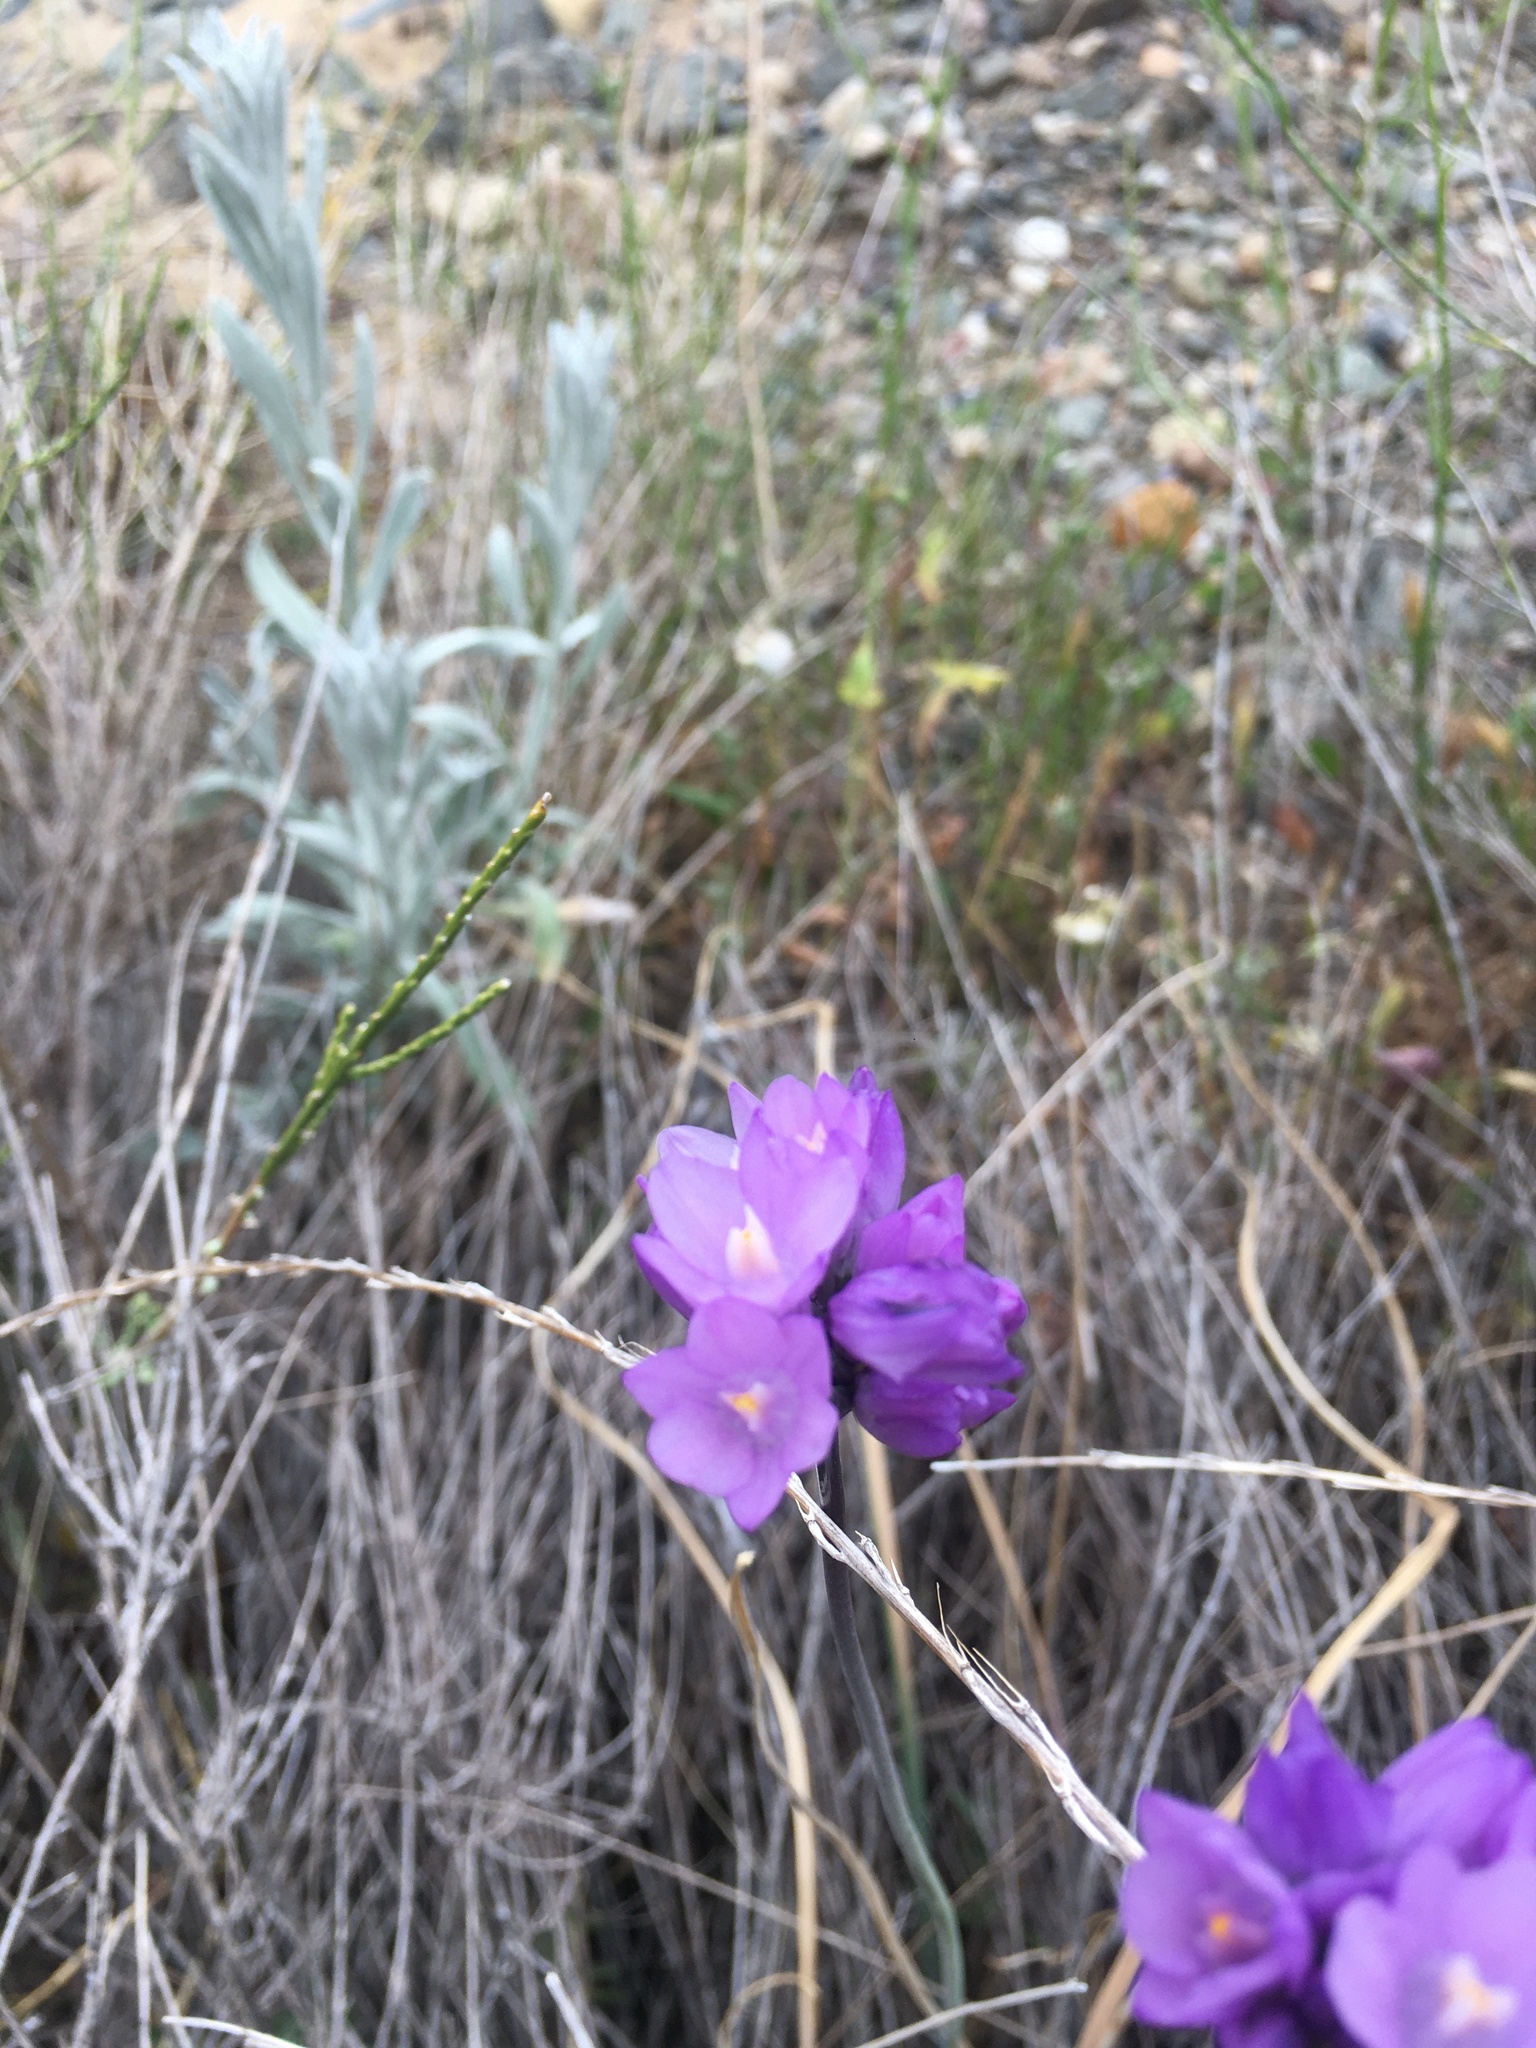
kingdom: Plantae
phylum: Tracheophyta
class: Liliopsida
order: Asparagales
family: Asparagaceae
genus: Dipterostemon
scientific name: Dipterostemon capitatus
